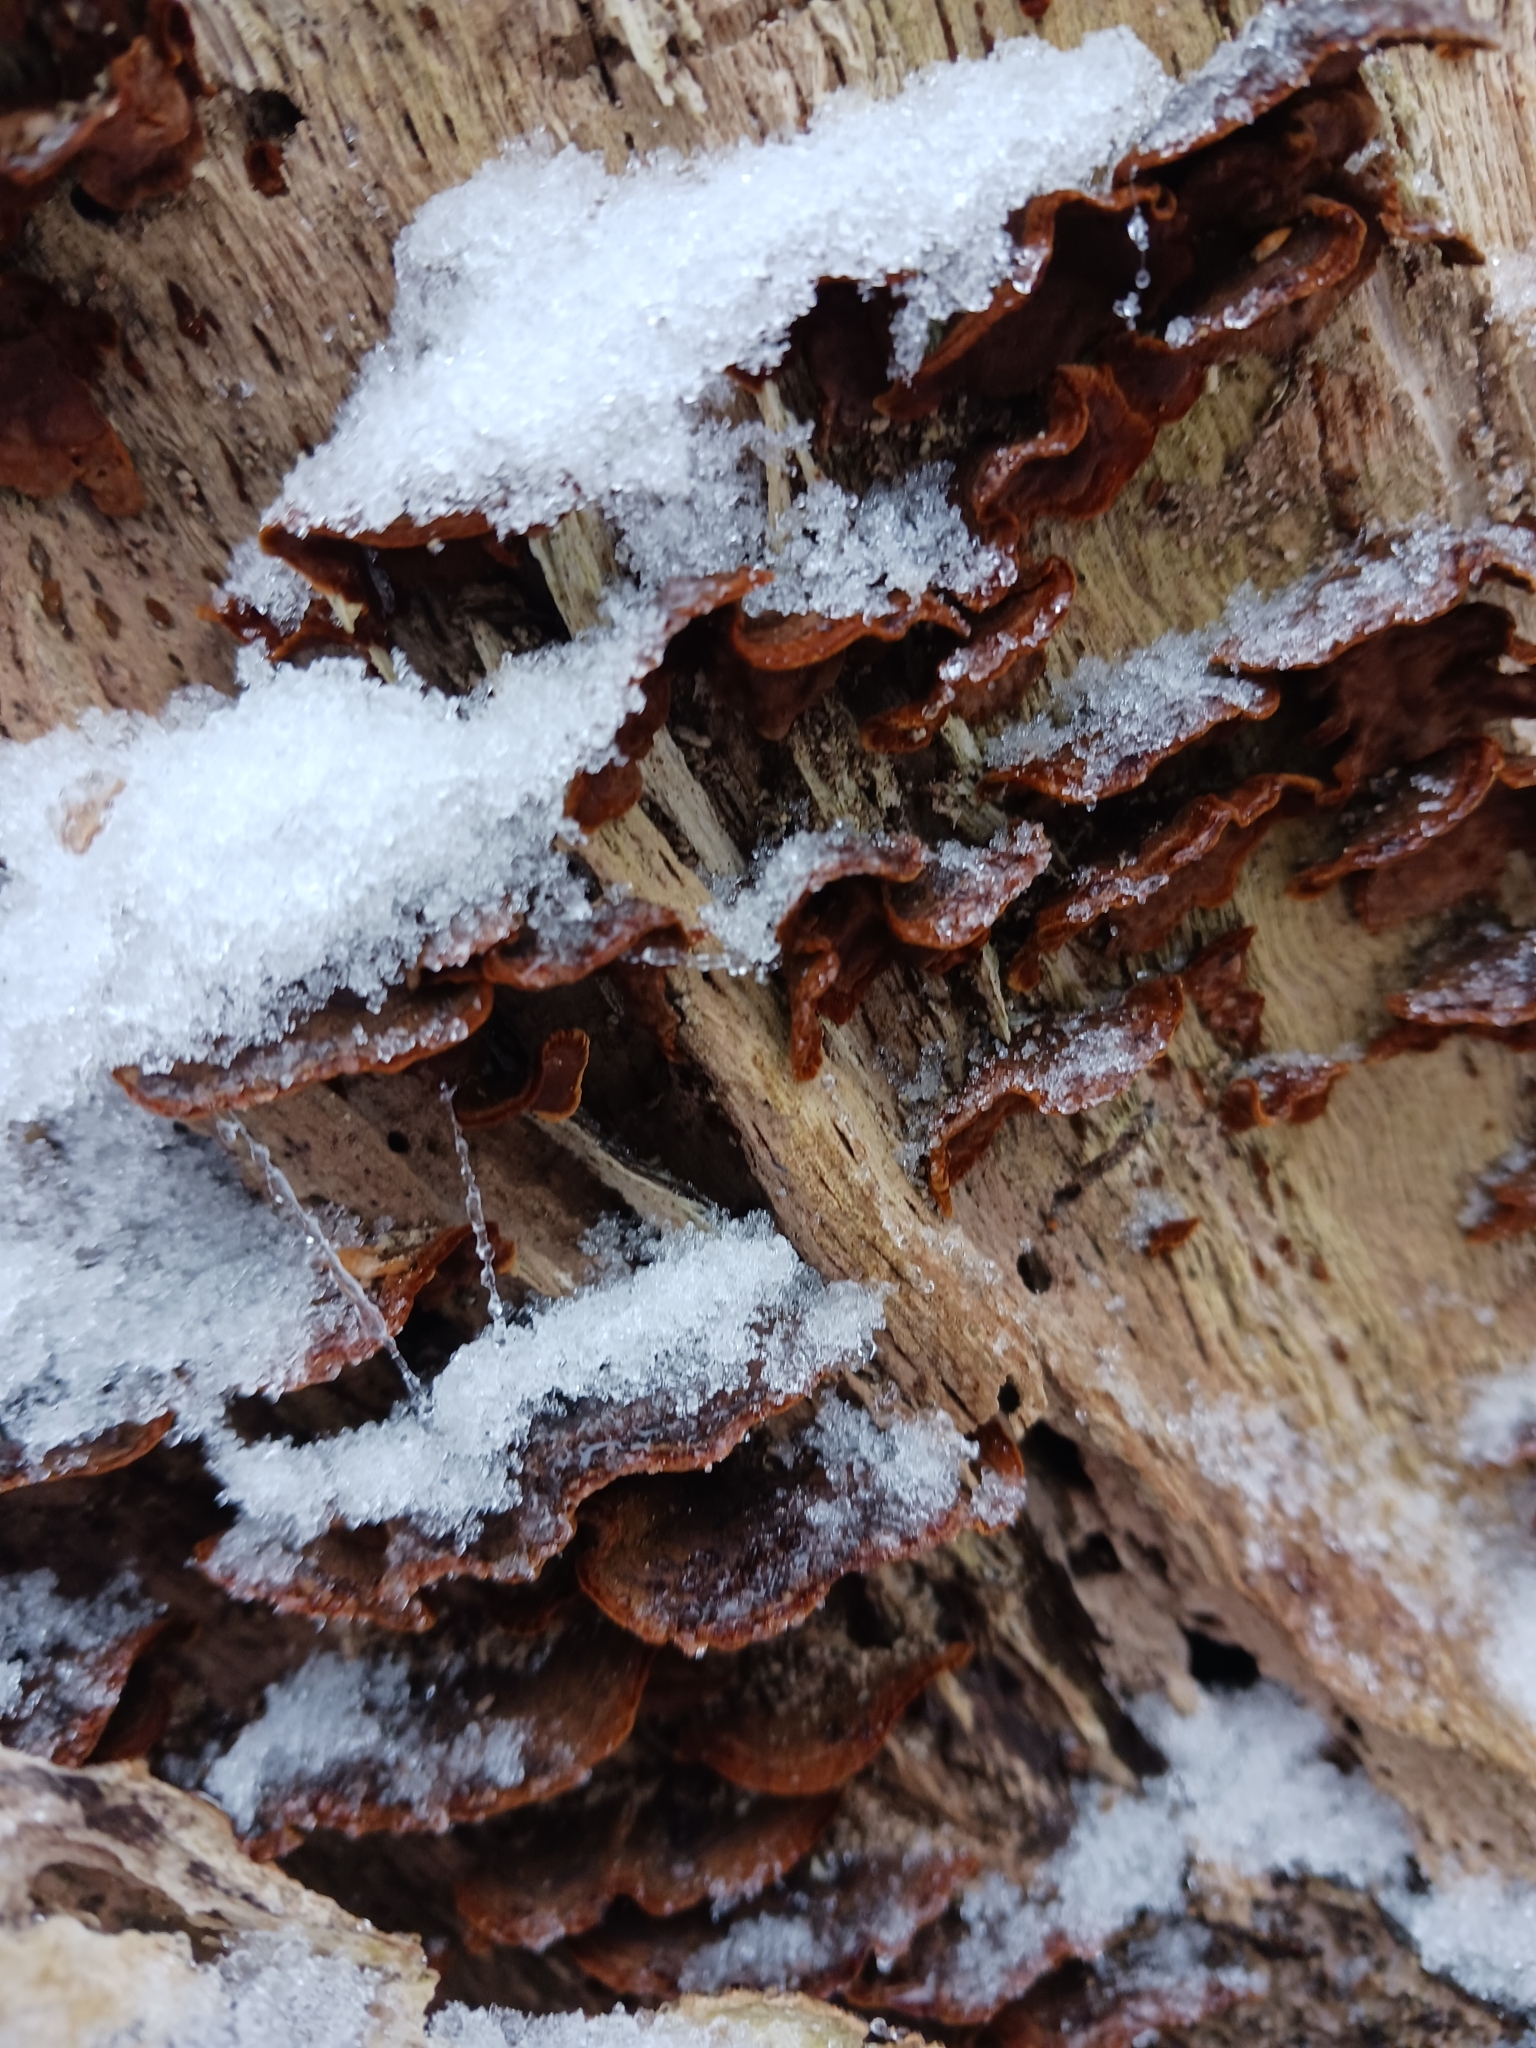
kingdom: Fungi
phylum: Basidiomycota
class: Agaricomycetes
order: Hymenochaetales
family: Hymenochaetaceae
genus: Hymenochaete
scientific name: Hymenochaete rubiginosa
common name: Oak curtain crust
